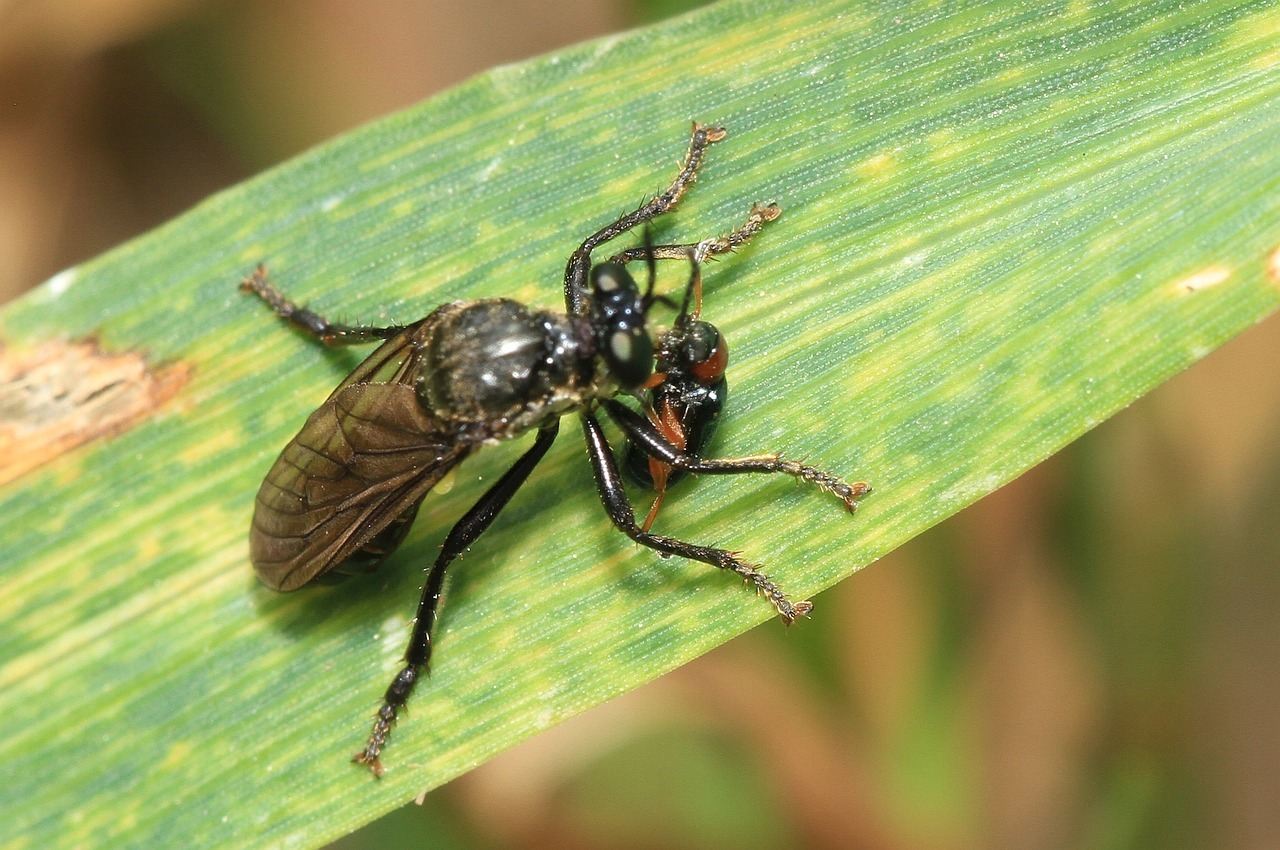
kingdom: Animalia
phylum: Arthropoda
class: Insecta
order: Diptera
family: Asilidae
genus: Dioctria
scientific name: Dioctria atricapilla
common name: Violet black-legged
